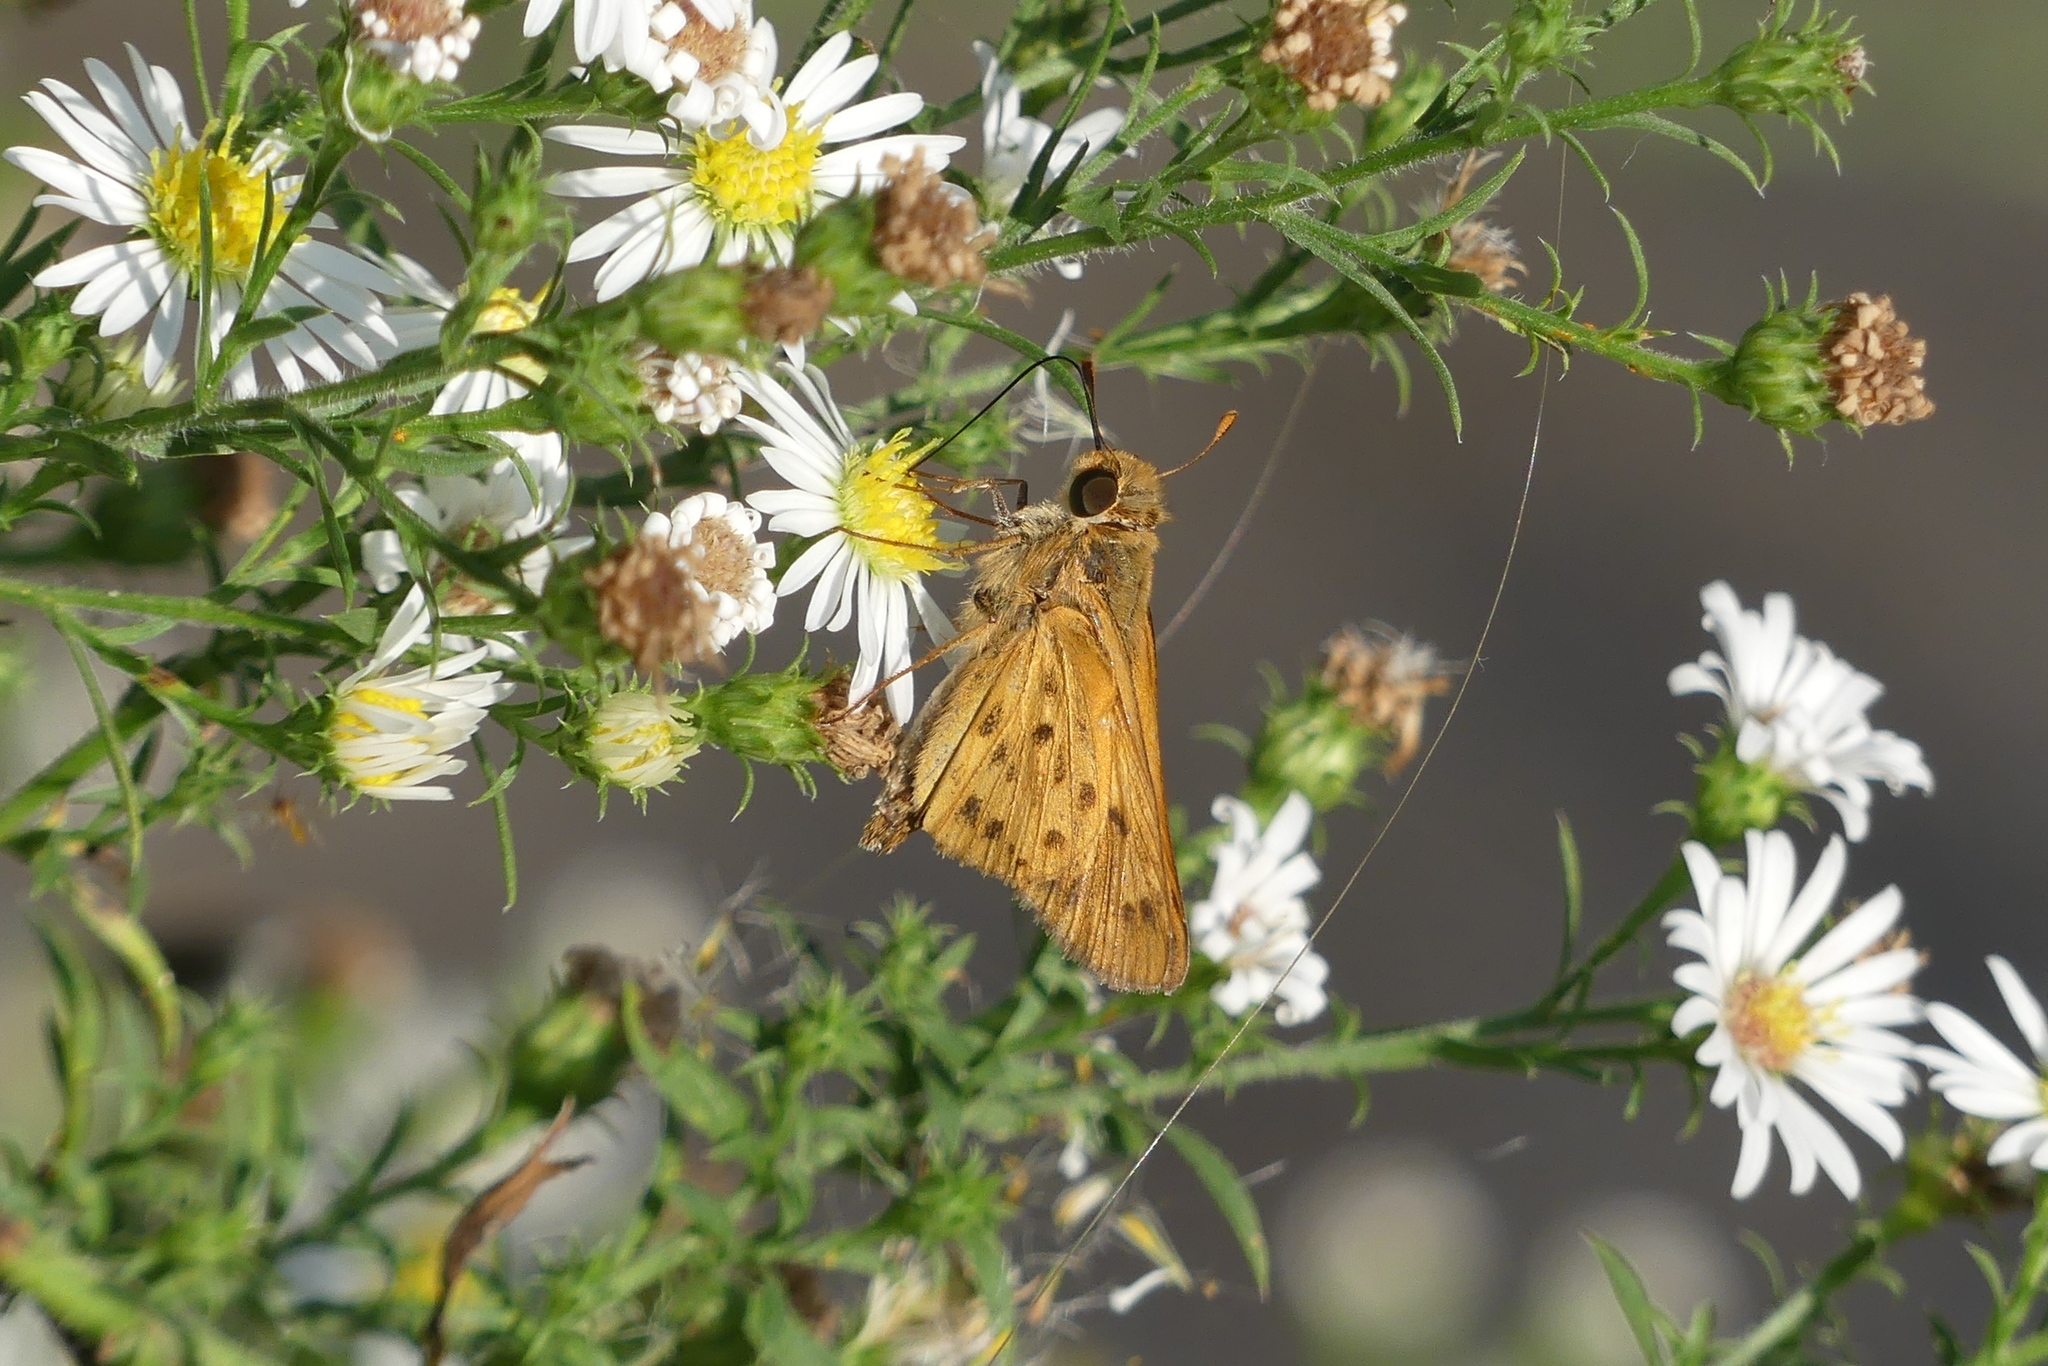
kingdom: Animalia
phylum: Arthropoda
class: Insecta
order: Lepidoptera
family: Hesperiidae
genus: Hylephila
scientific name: Hylephila phyleus
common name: Fiery skipper
